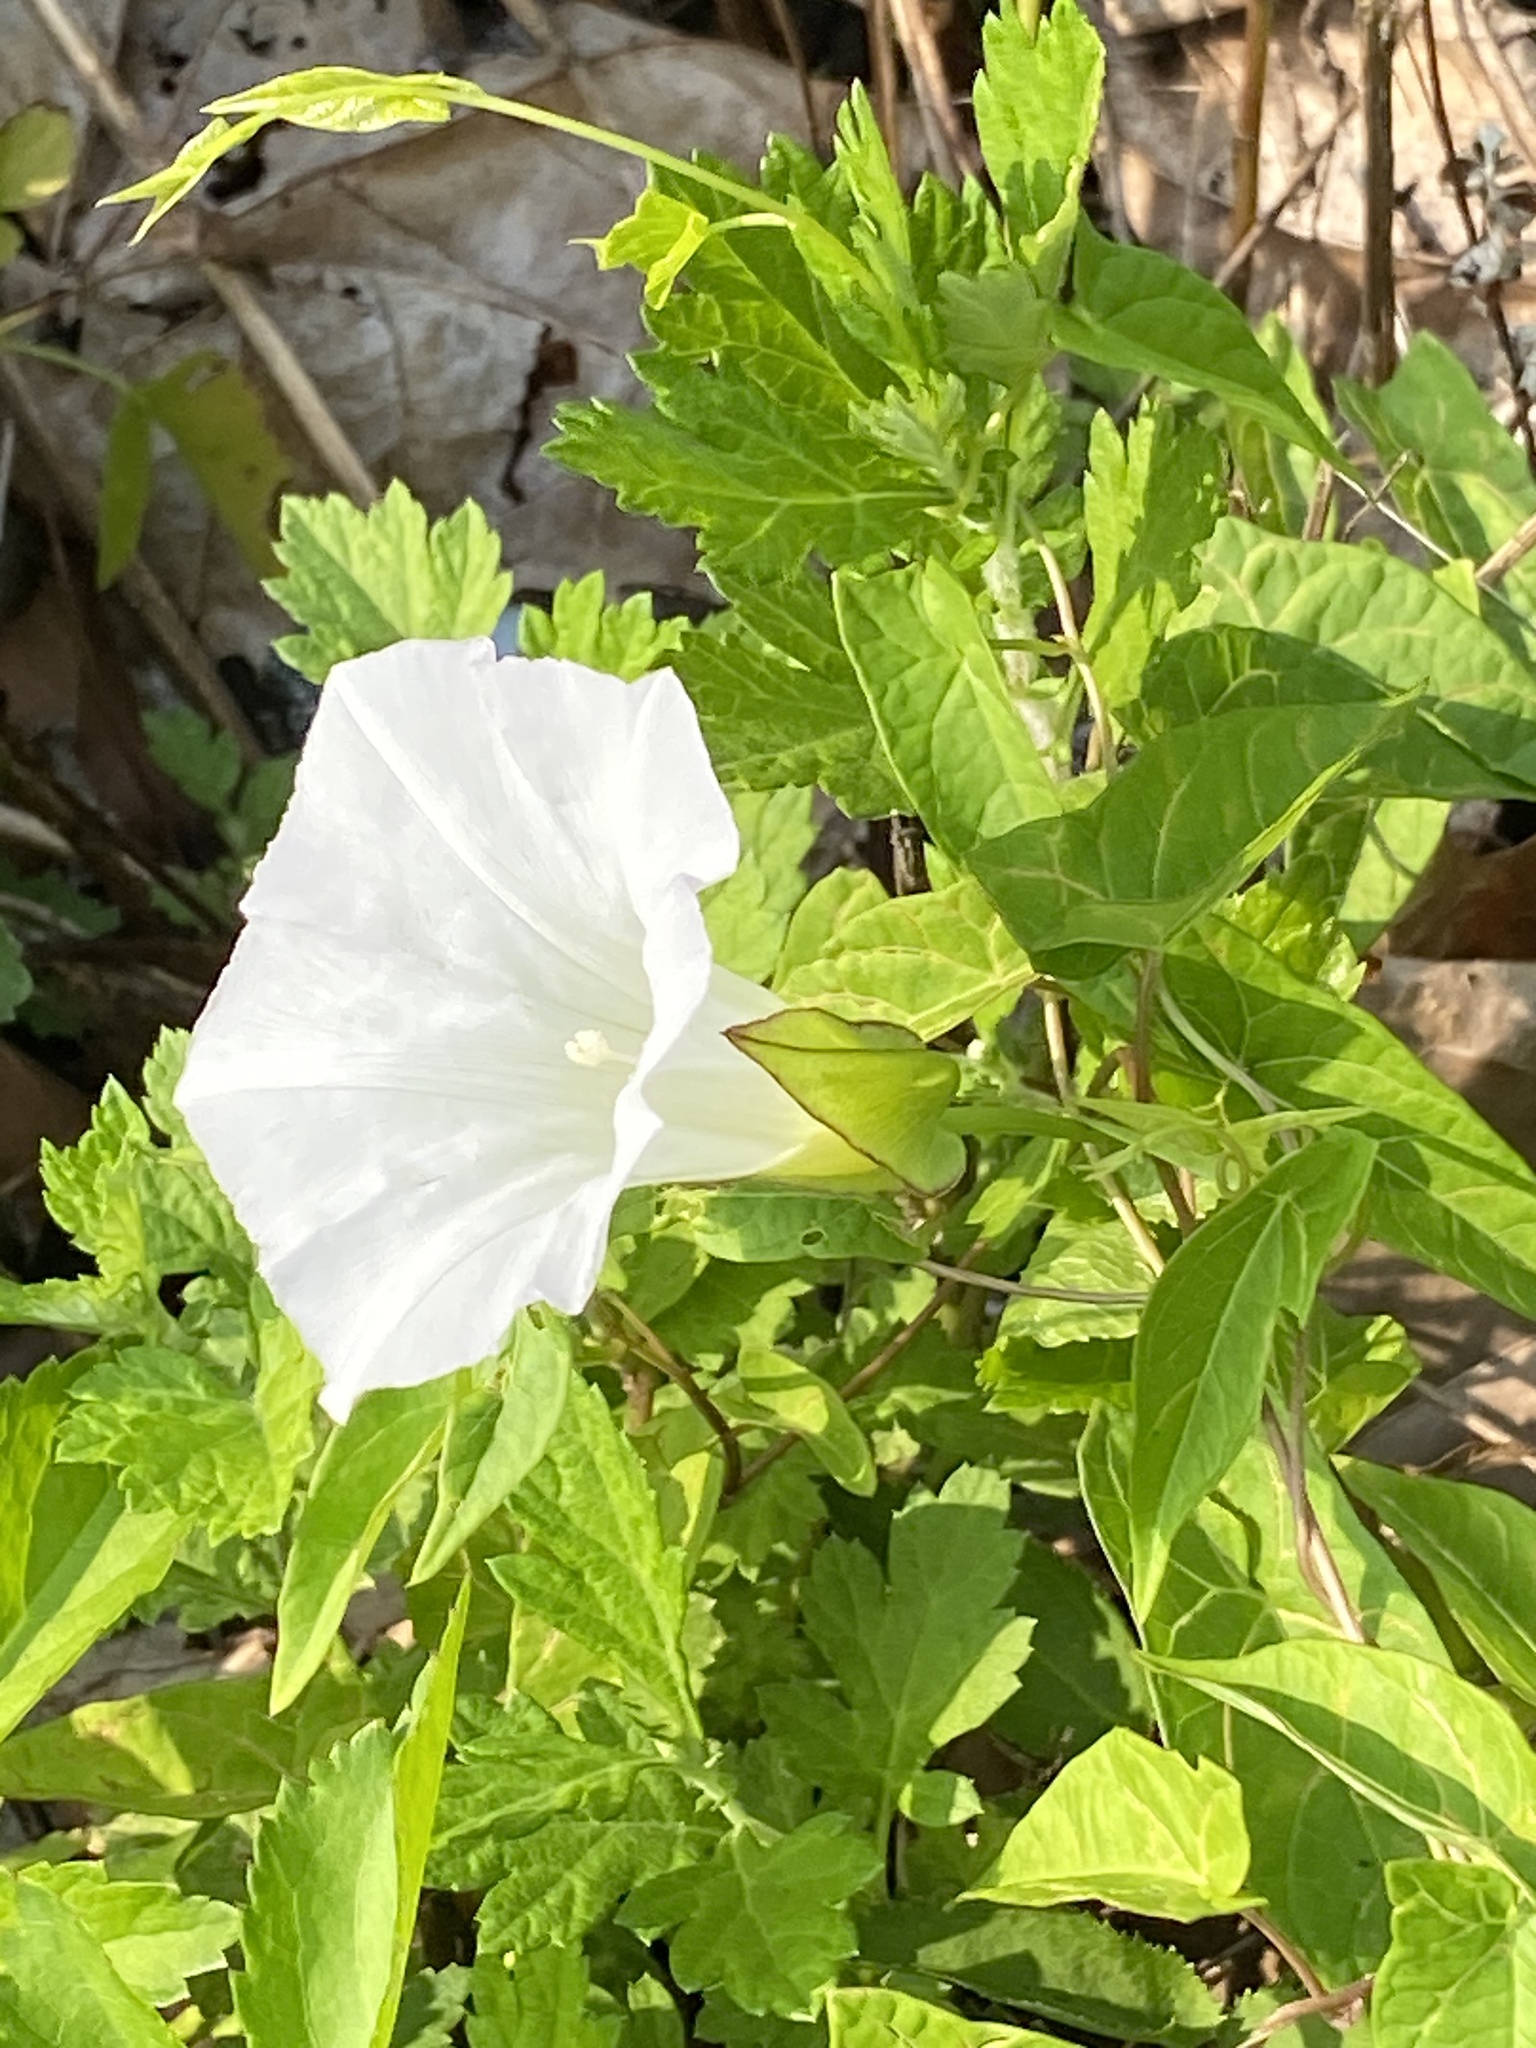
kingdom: Plantae
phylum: Tracheophyta
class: Magnoliopsida
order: Solanales
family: Convolvulaceae
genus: Calystegia
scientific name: Calystegia sepium
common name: Hedge bindweed
